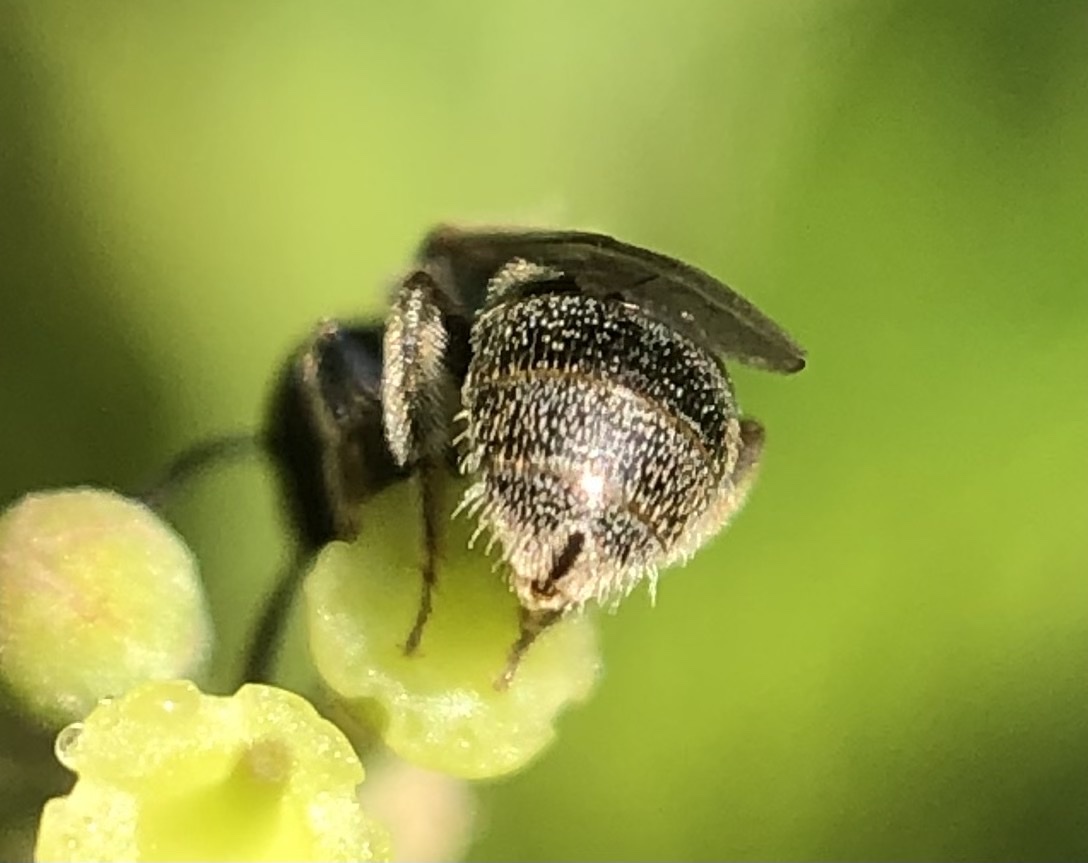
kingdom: Animalia
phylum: Arthropoda
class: Insecta
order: Hymenoptera
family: Halictidae
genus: Lasioglossum
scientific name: Lasioglossum imitatum
